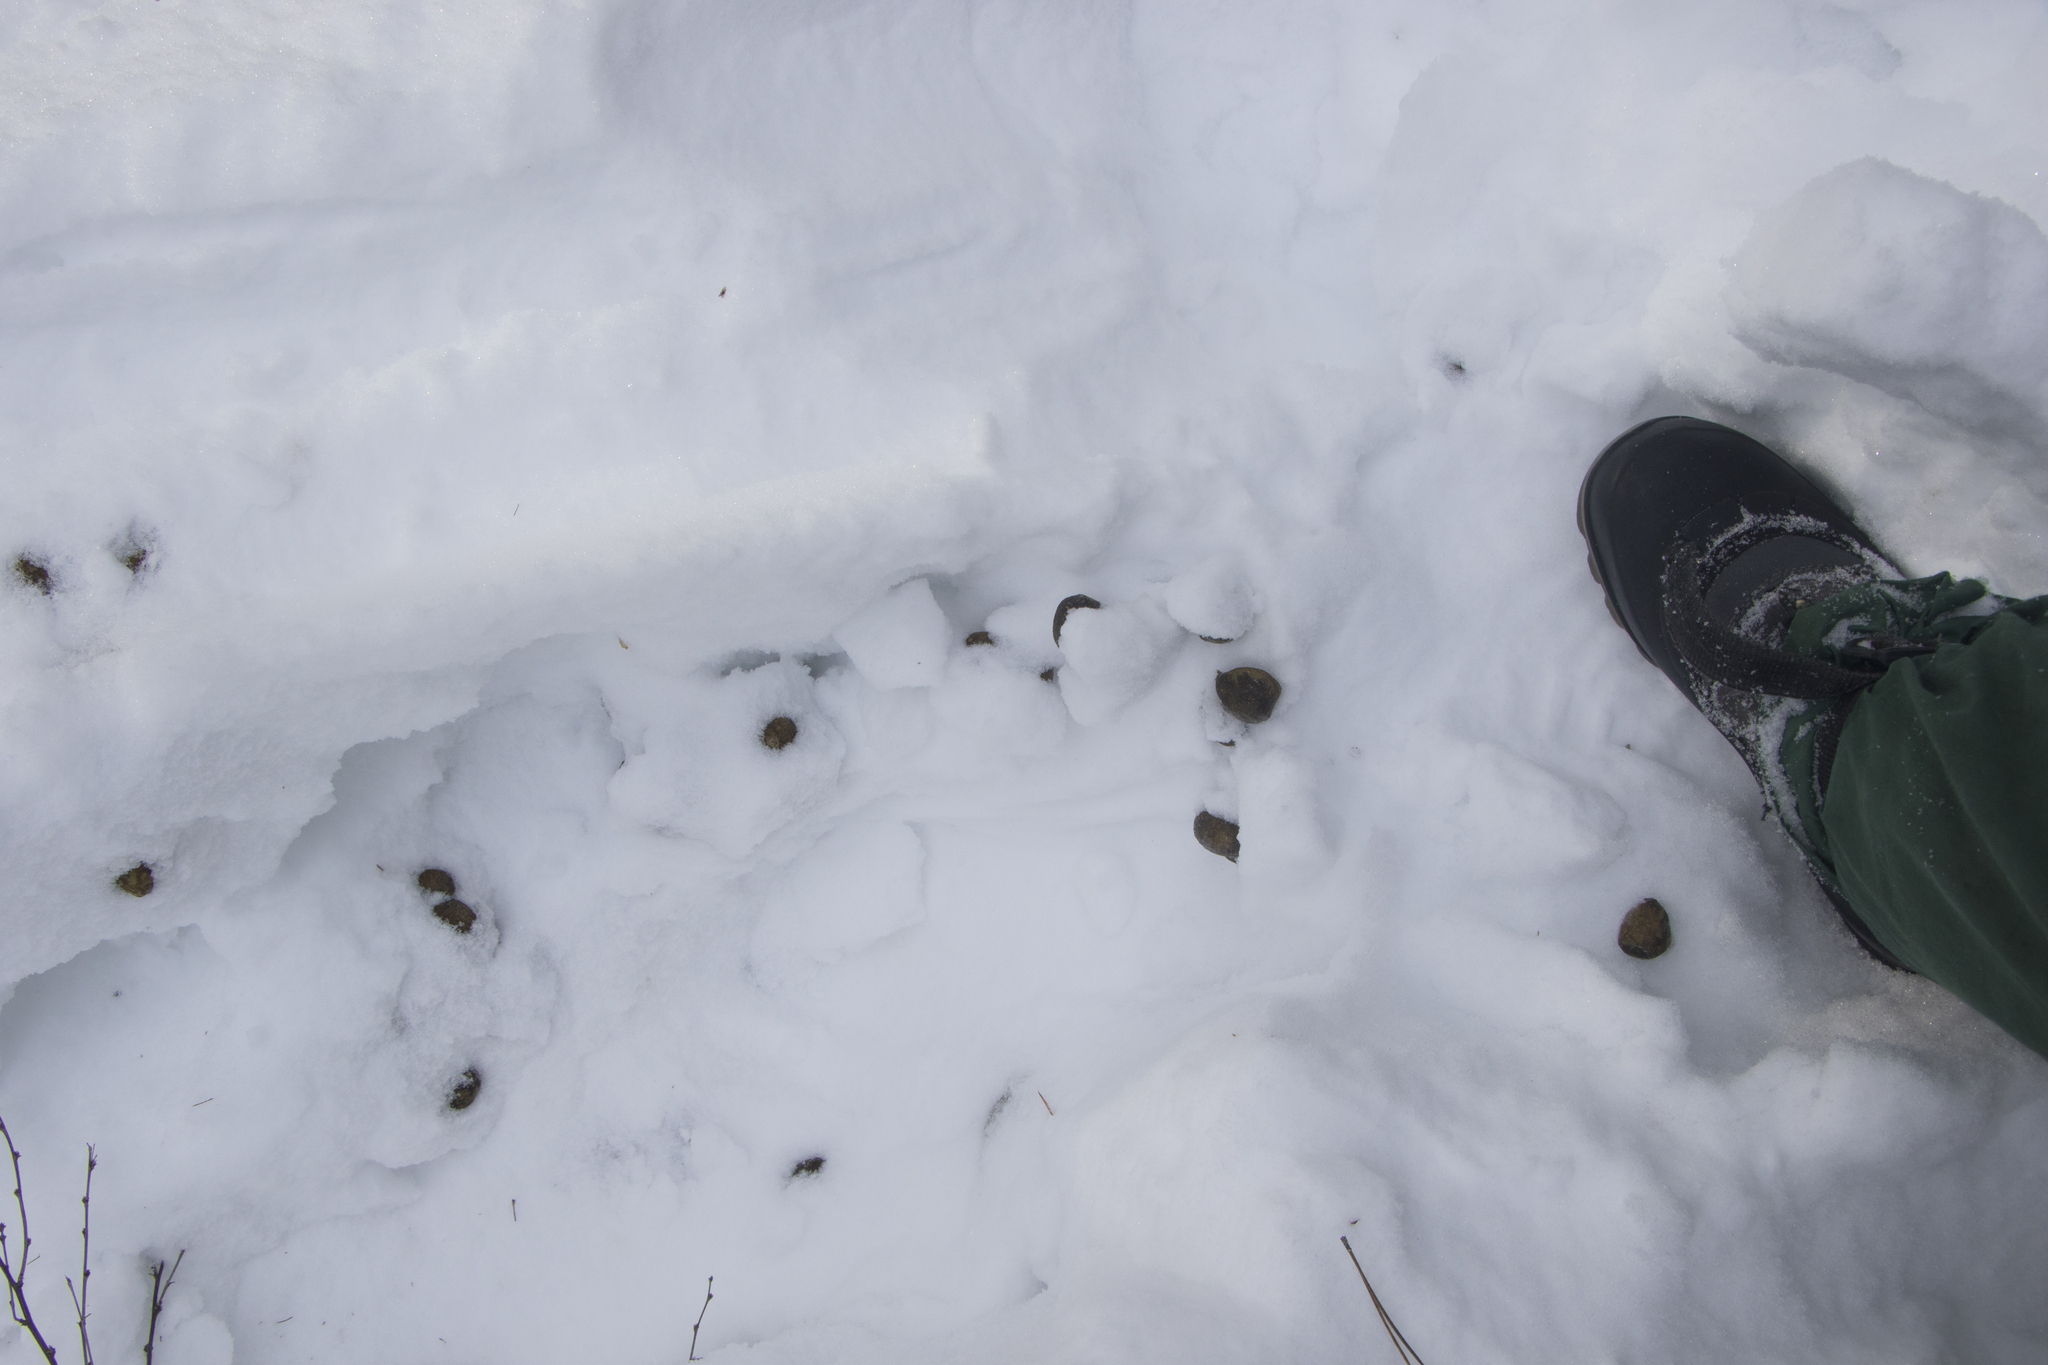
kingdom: Animalia
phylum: Chordata
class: Mammalia
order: Artiodactyla
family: Cervidae
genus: Alces
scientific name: Alces alces
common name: Moose
